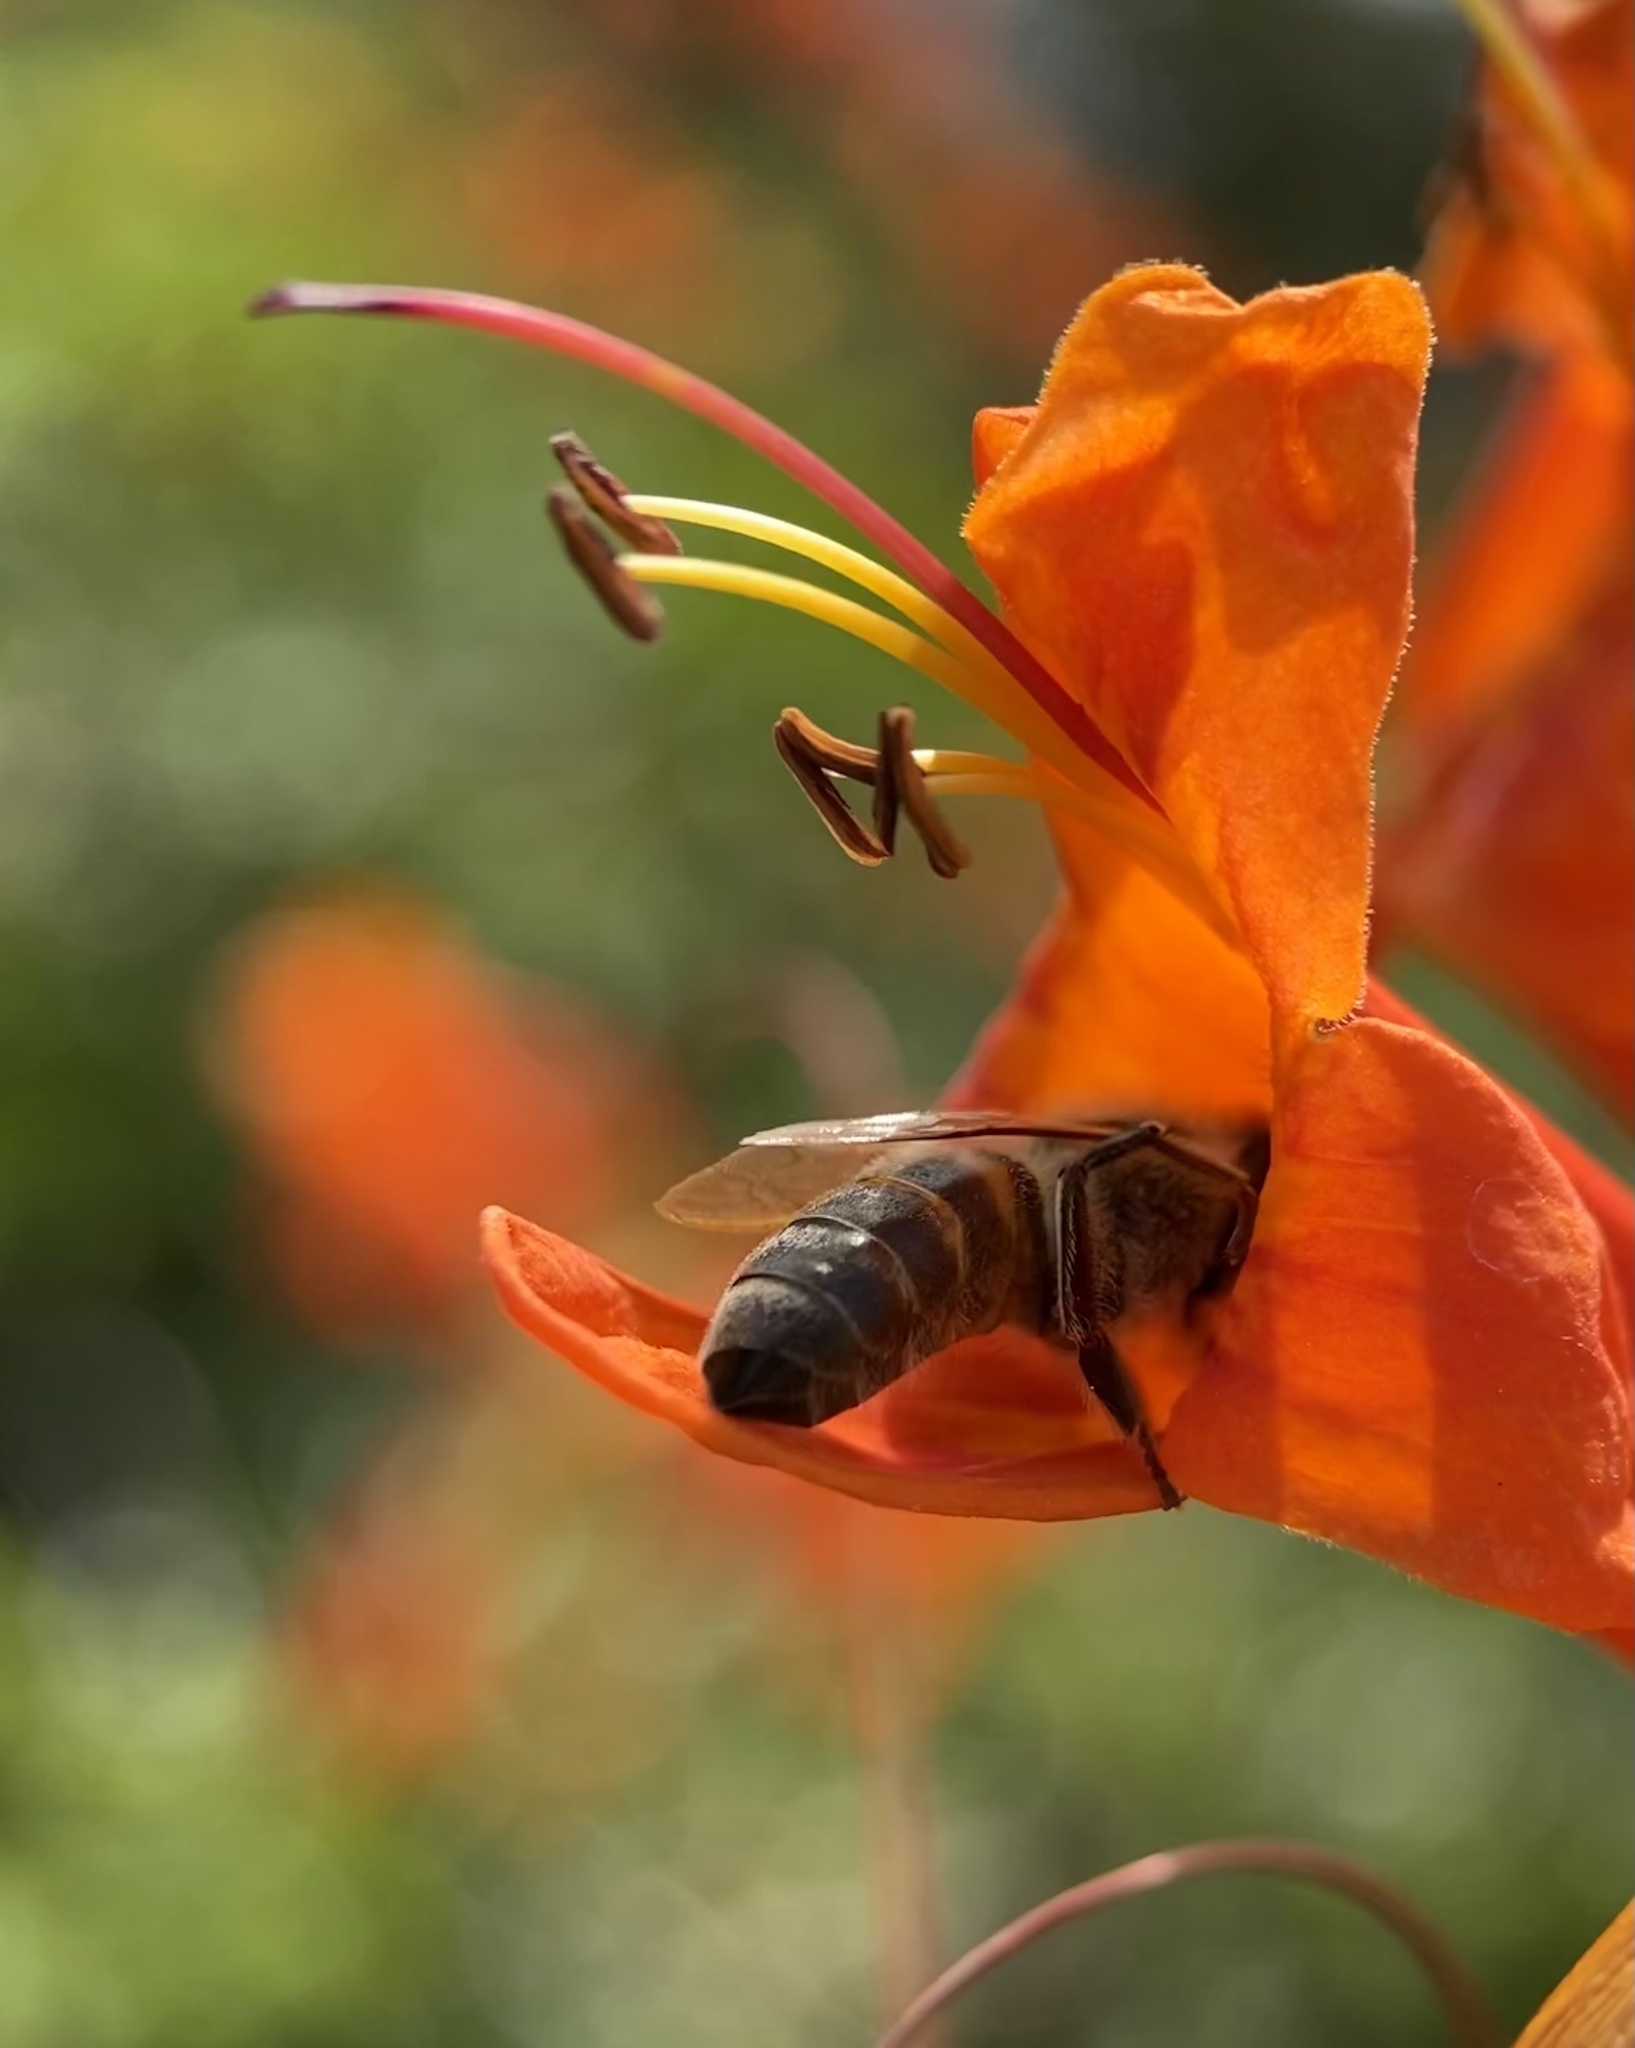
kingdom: Animalia
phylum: Arthropoda
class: Insecta
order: Hymenoptera
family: Apidae
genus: Apis
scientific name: Apis mellifera
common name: Honey bee
